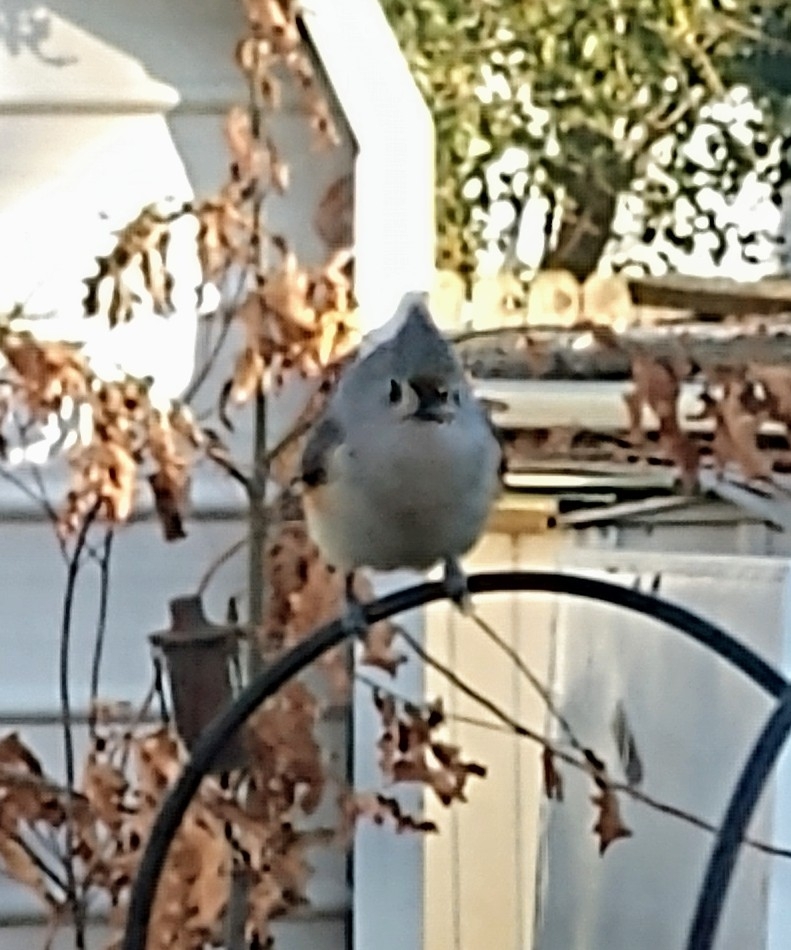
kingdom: Animalia
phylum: Chordata
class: Aves
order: Passeriformes
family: Paridae
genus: Baeolophus
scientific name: Baeolophus bicolor
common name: Tufted titmouse
